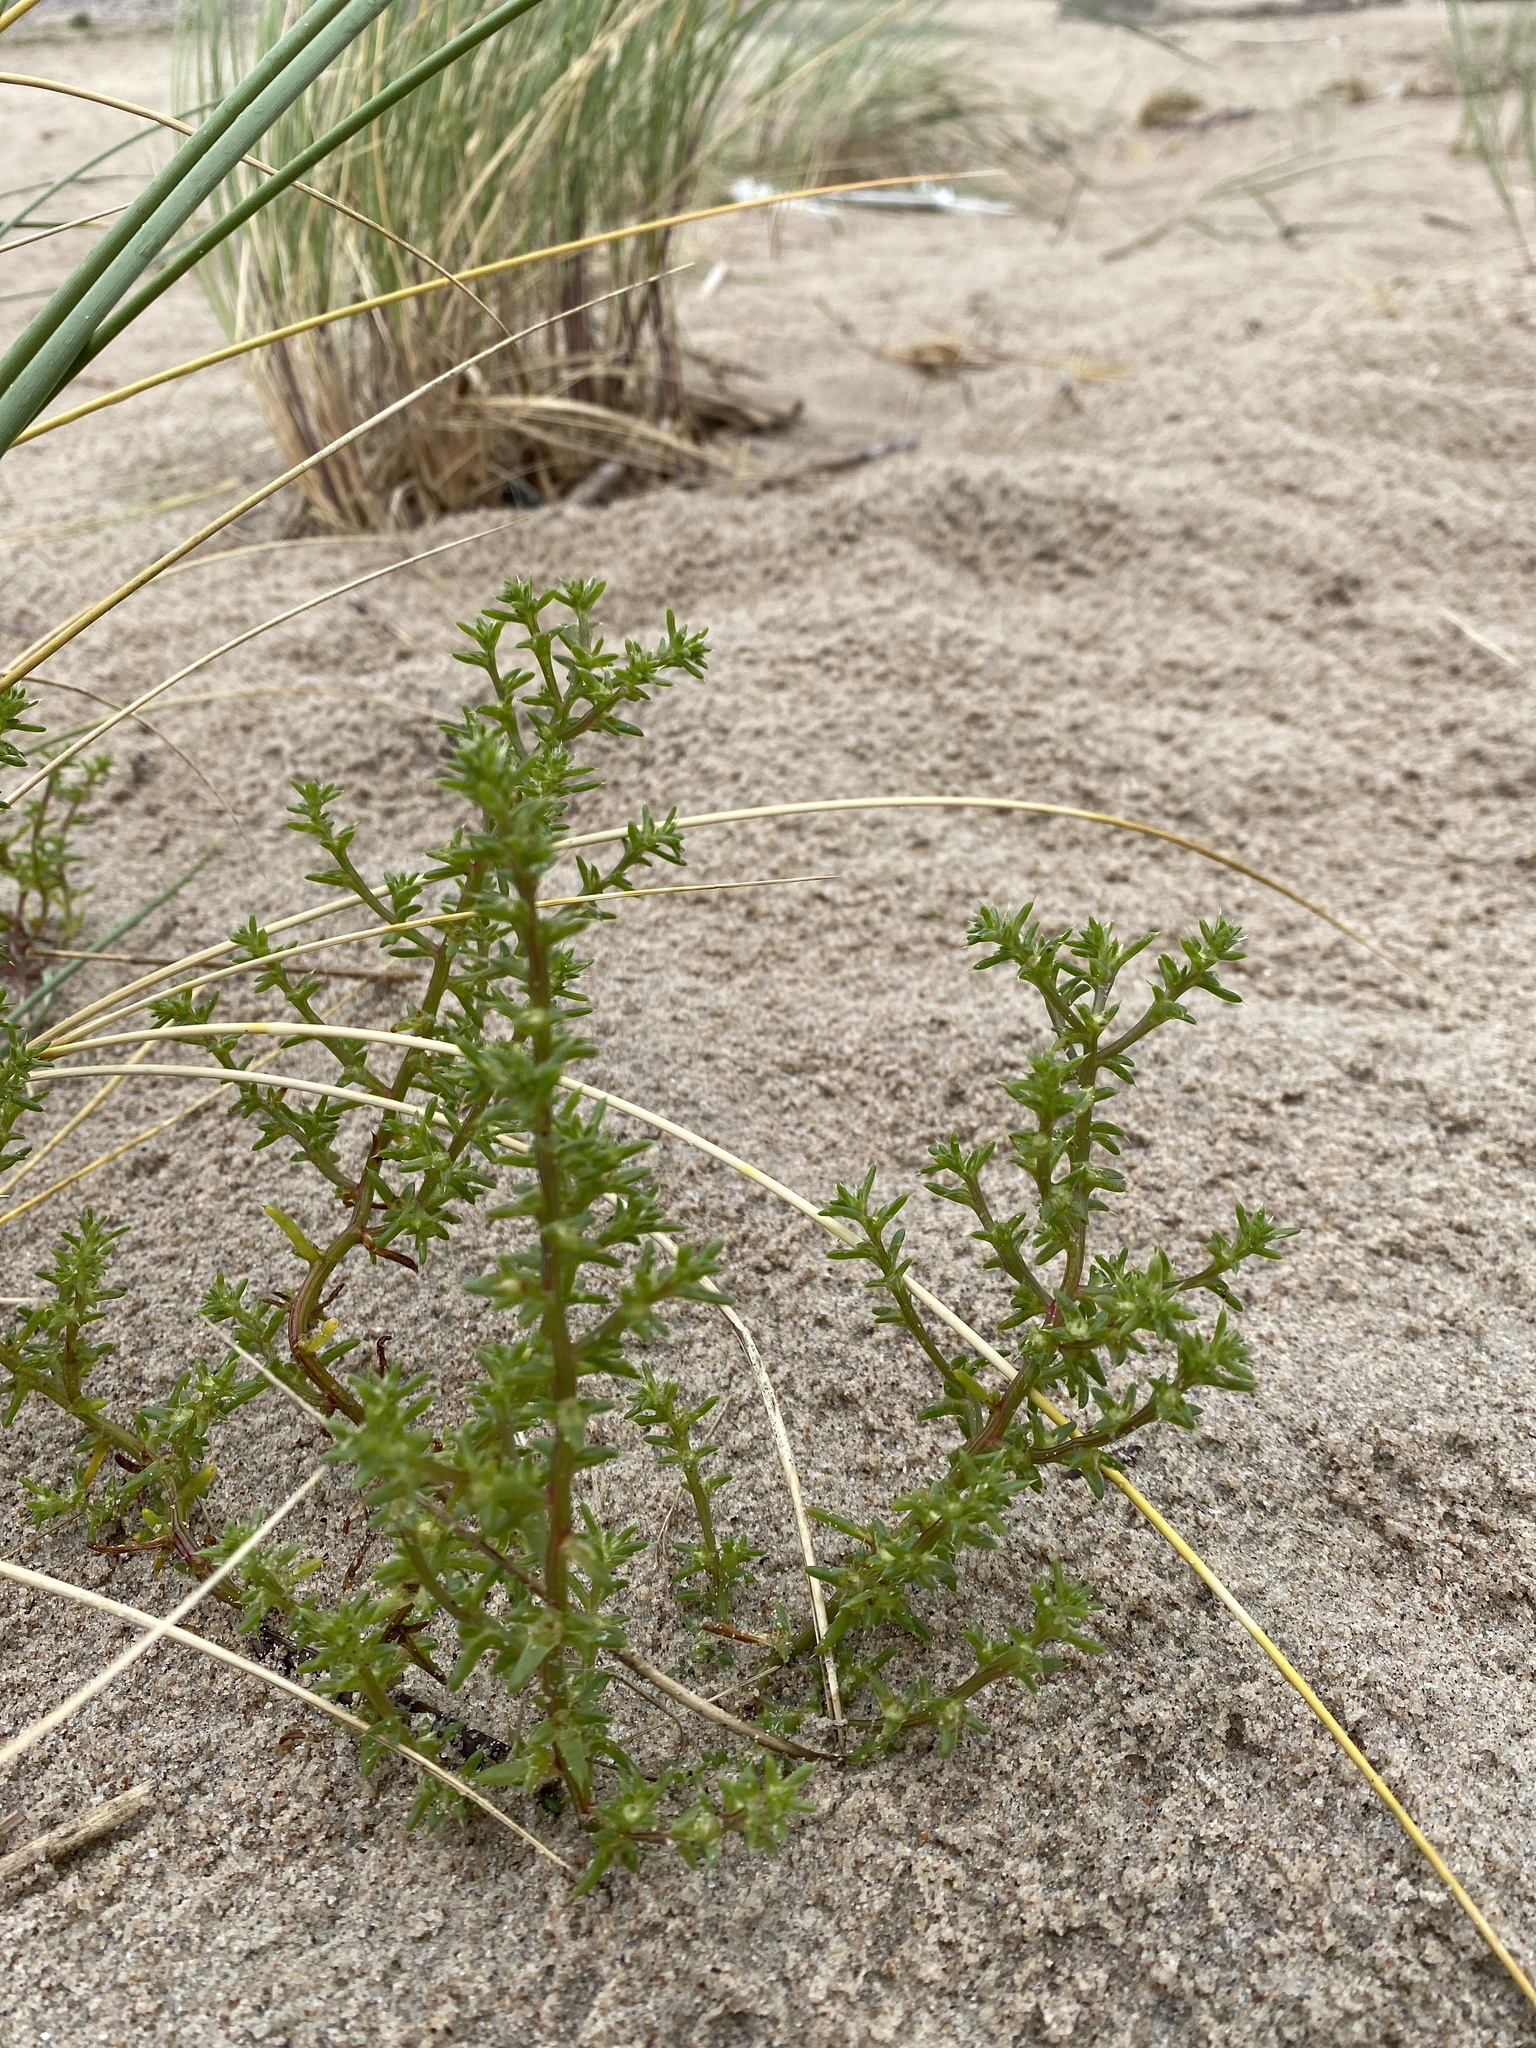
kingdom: Plantae
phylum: Tracheophyta
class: Magnoliopsida
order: Caryophyllales
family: Amaranthaceae
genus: Salsola
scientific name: Salsola kali
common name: Saltwort
